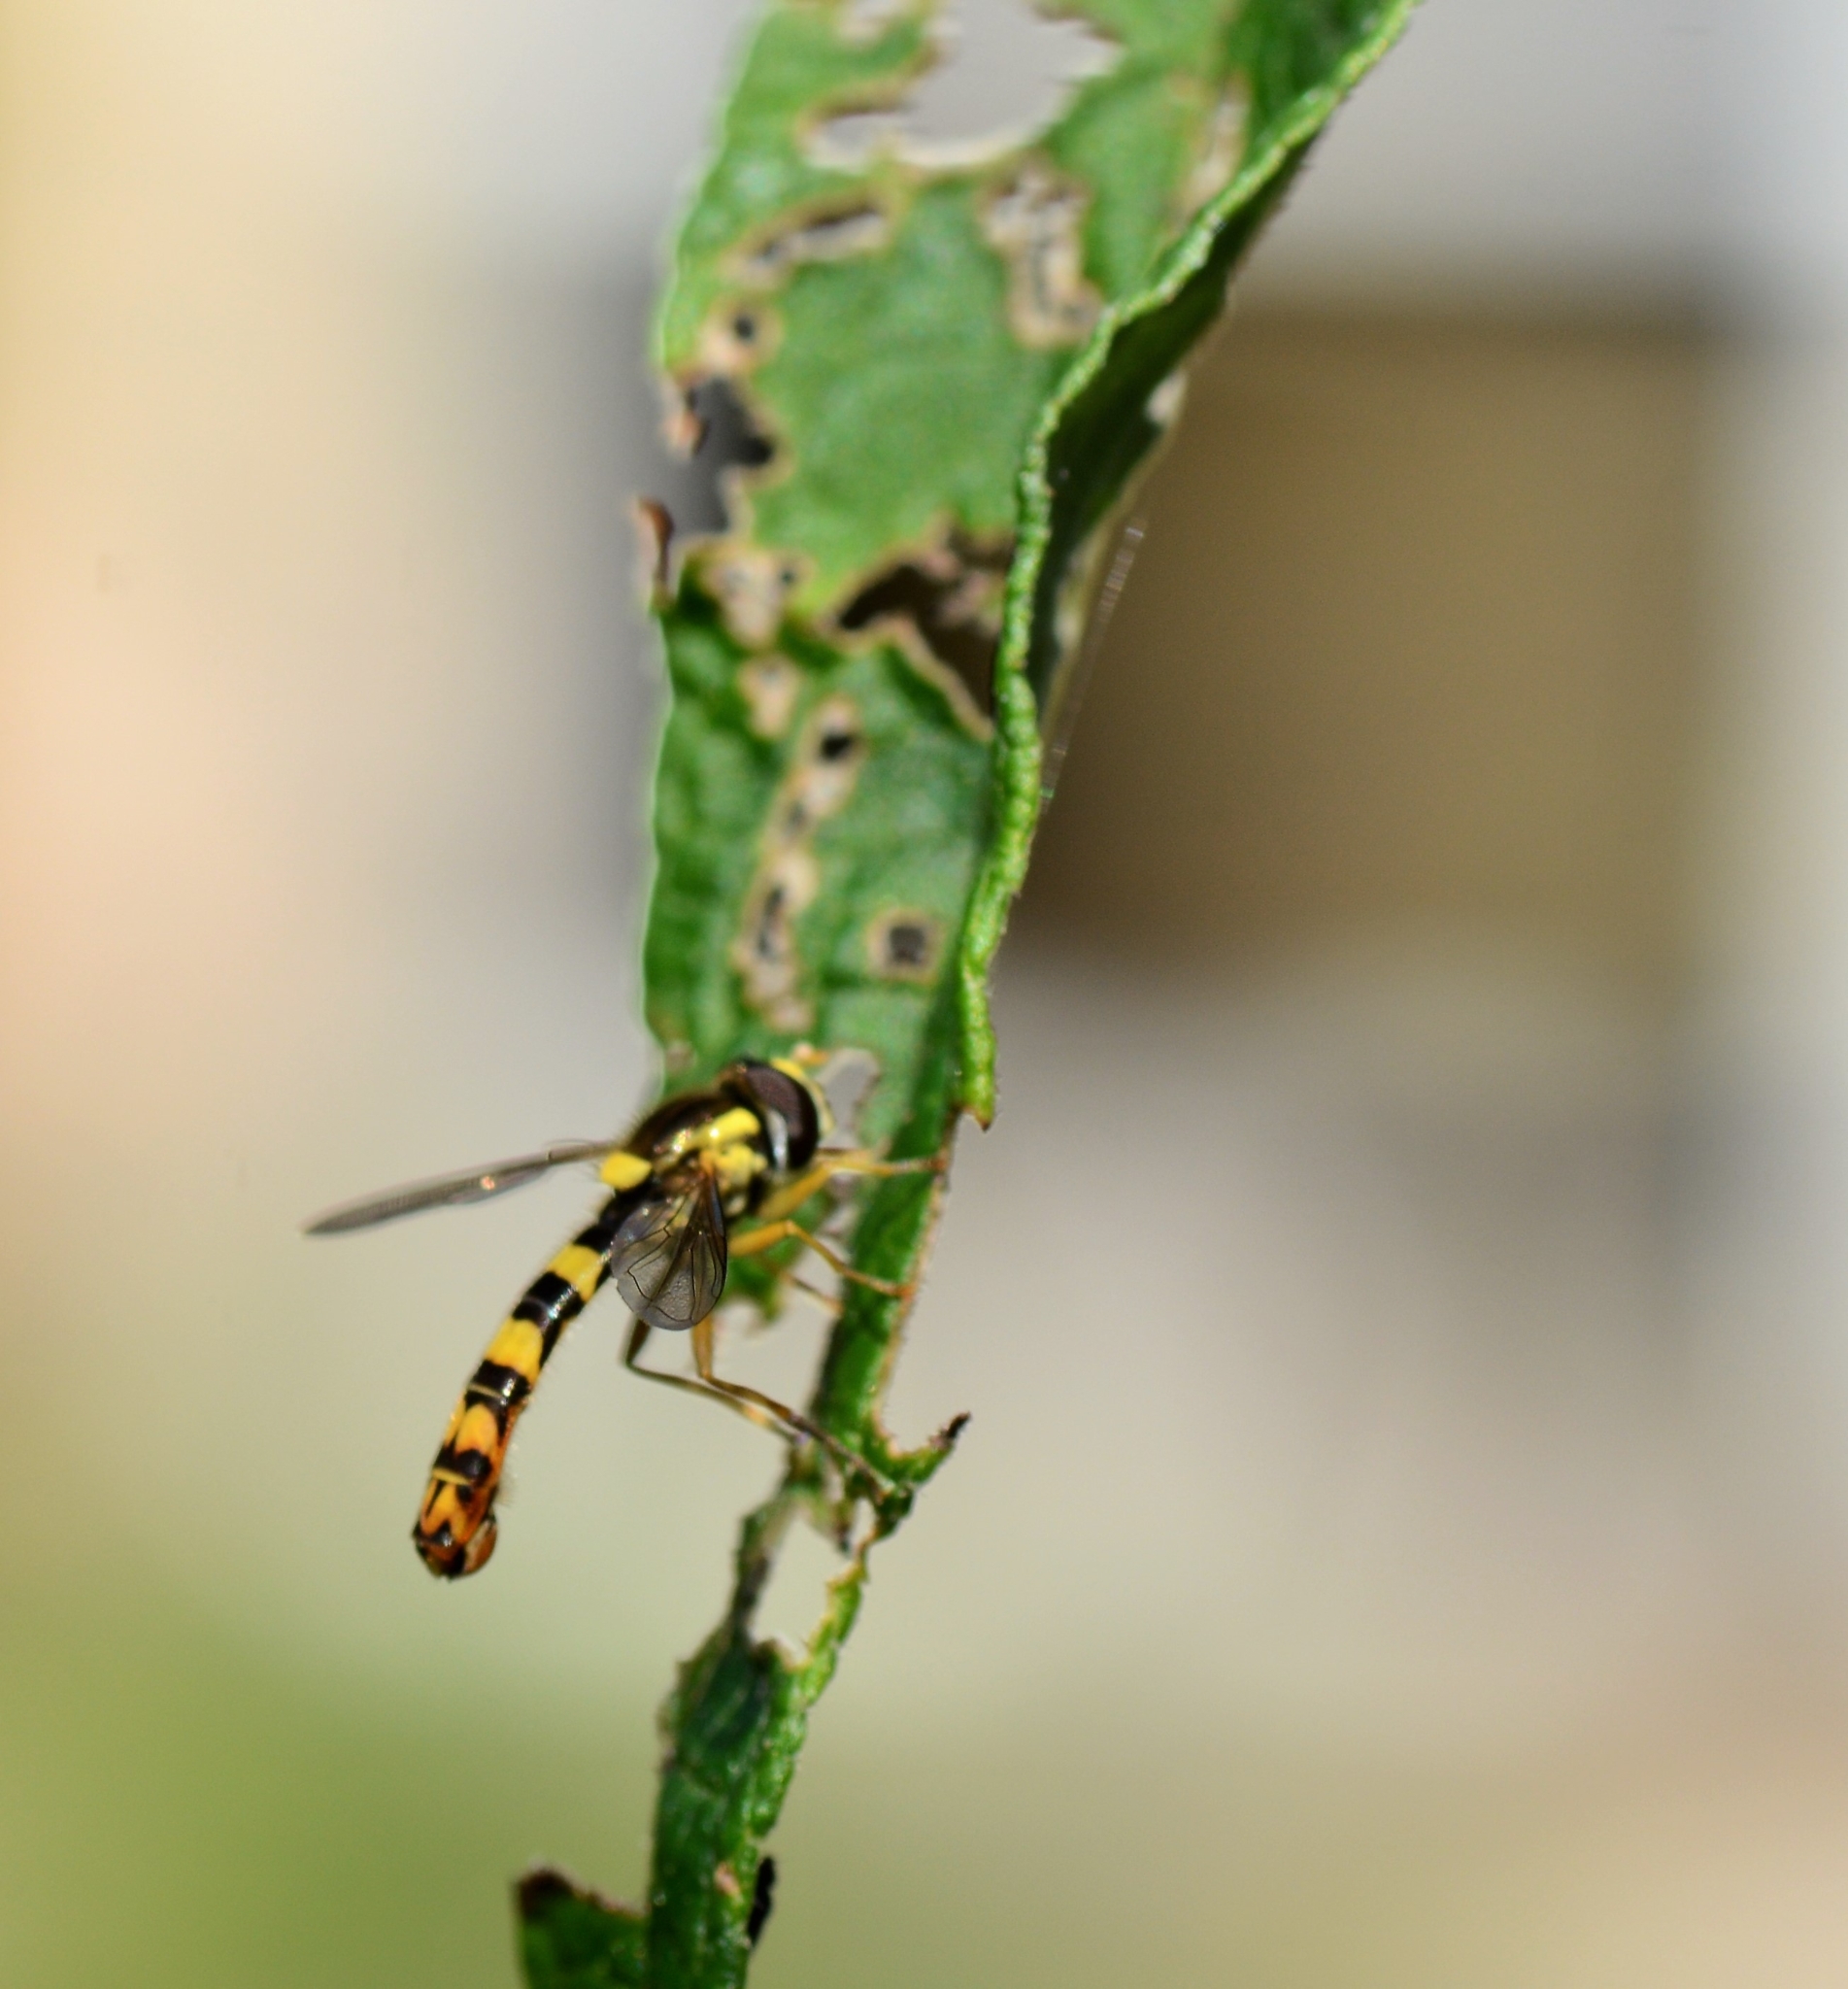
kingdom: Animalia
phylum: Arthropoda
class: Insecta
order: Diptera
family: Syrphidae
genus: Sphaerophoria
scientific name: Sphaerophoria scripta
